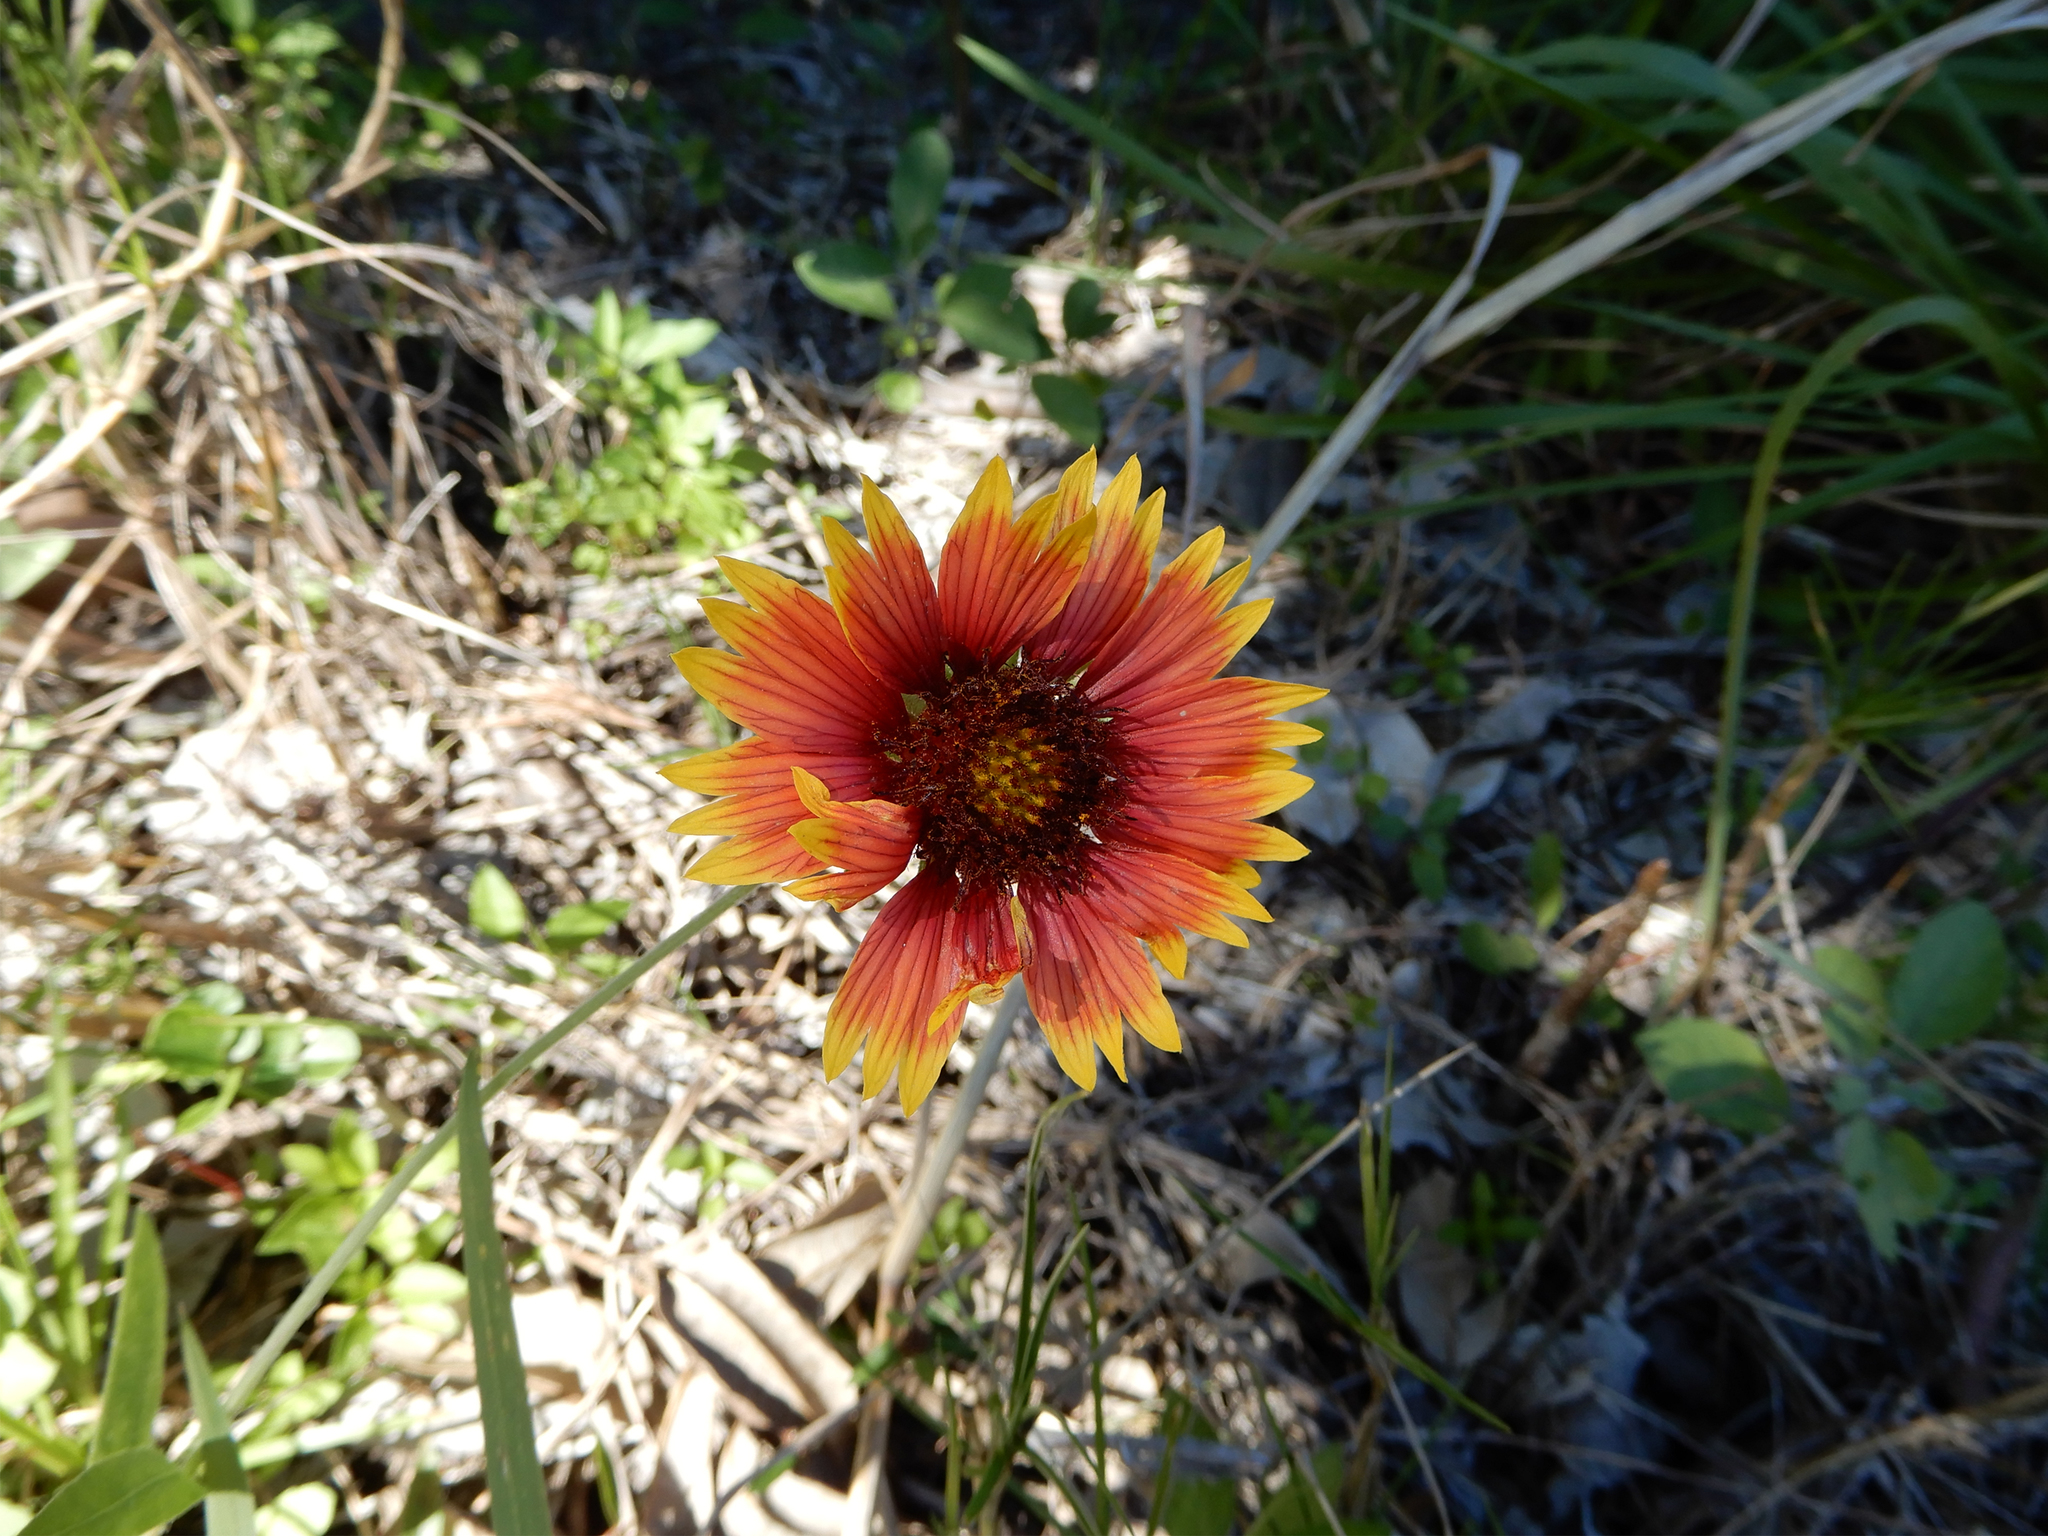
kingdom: Plantae
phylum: Tracheophyta
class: Magnoliopsida
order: Asterales
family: Asteraceae
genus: Gaillardia
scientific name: Gaillardia pulchella
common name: Firewheel
